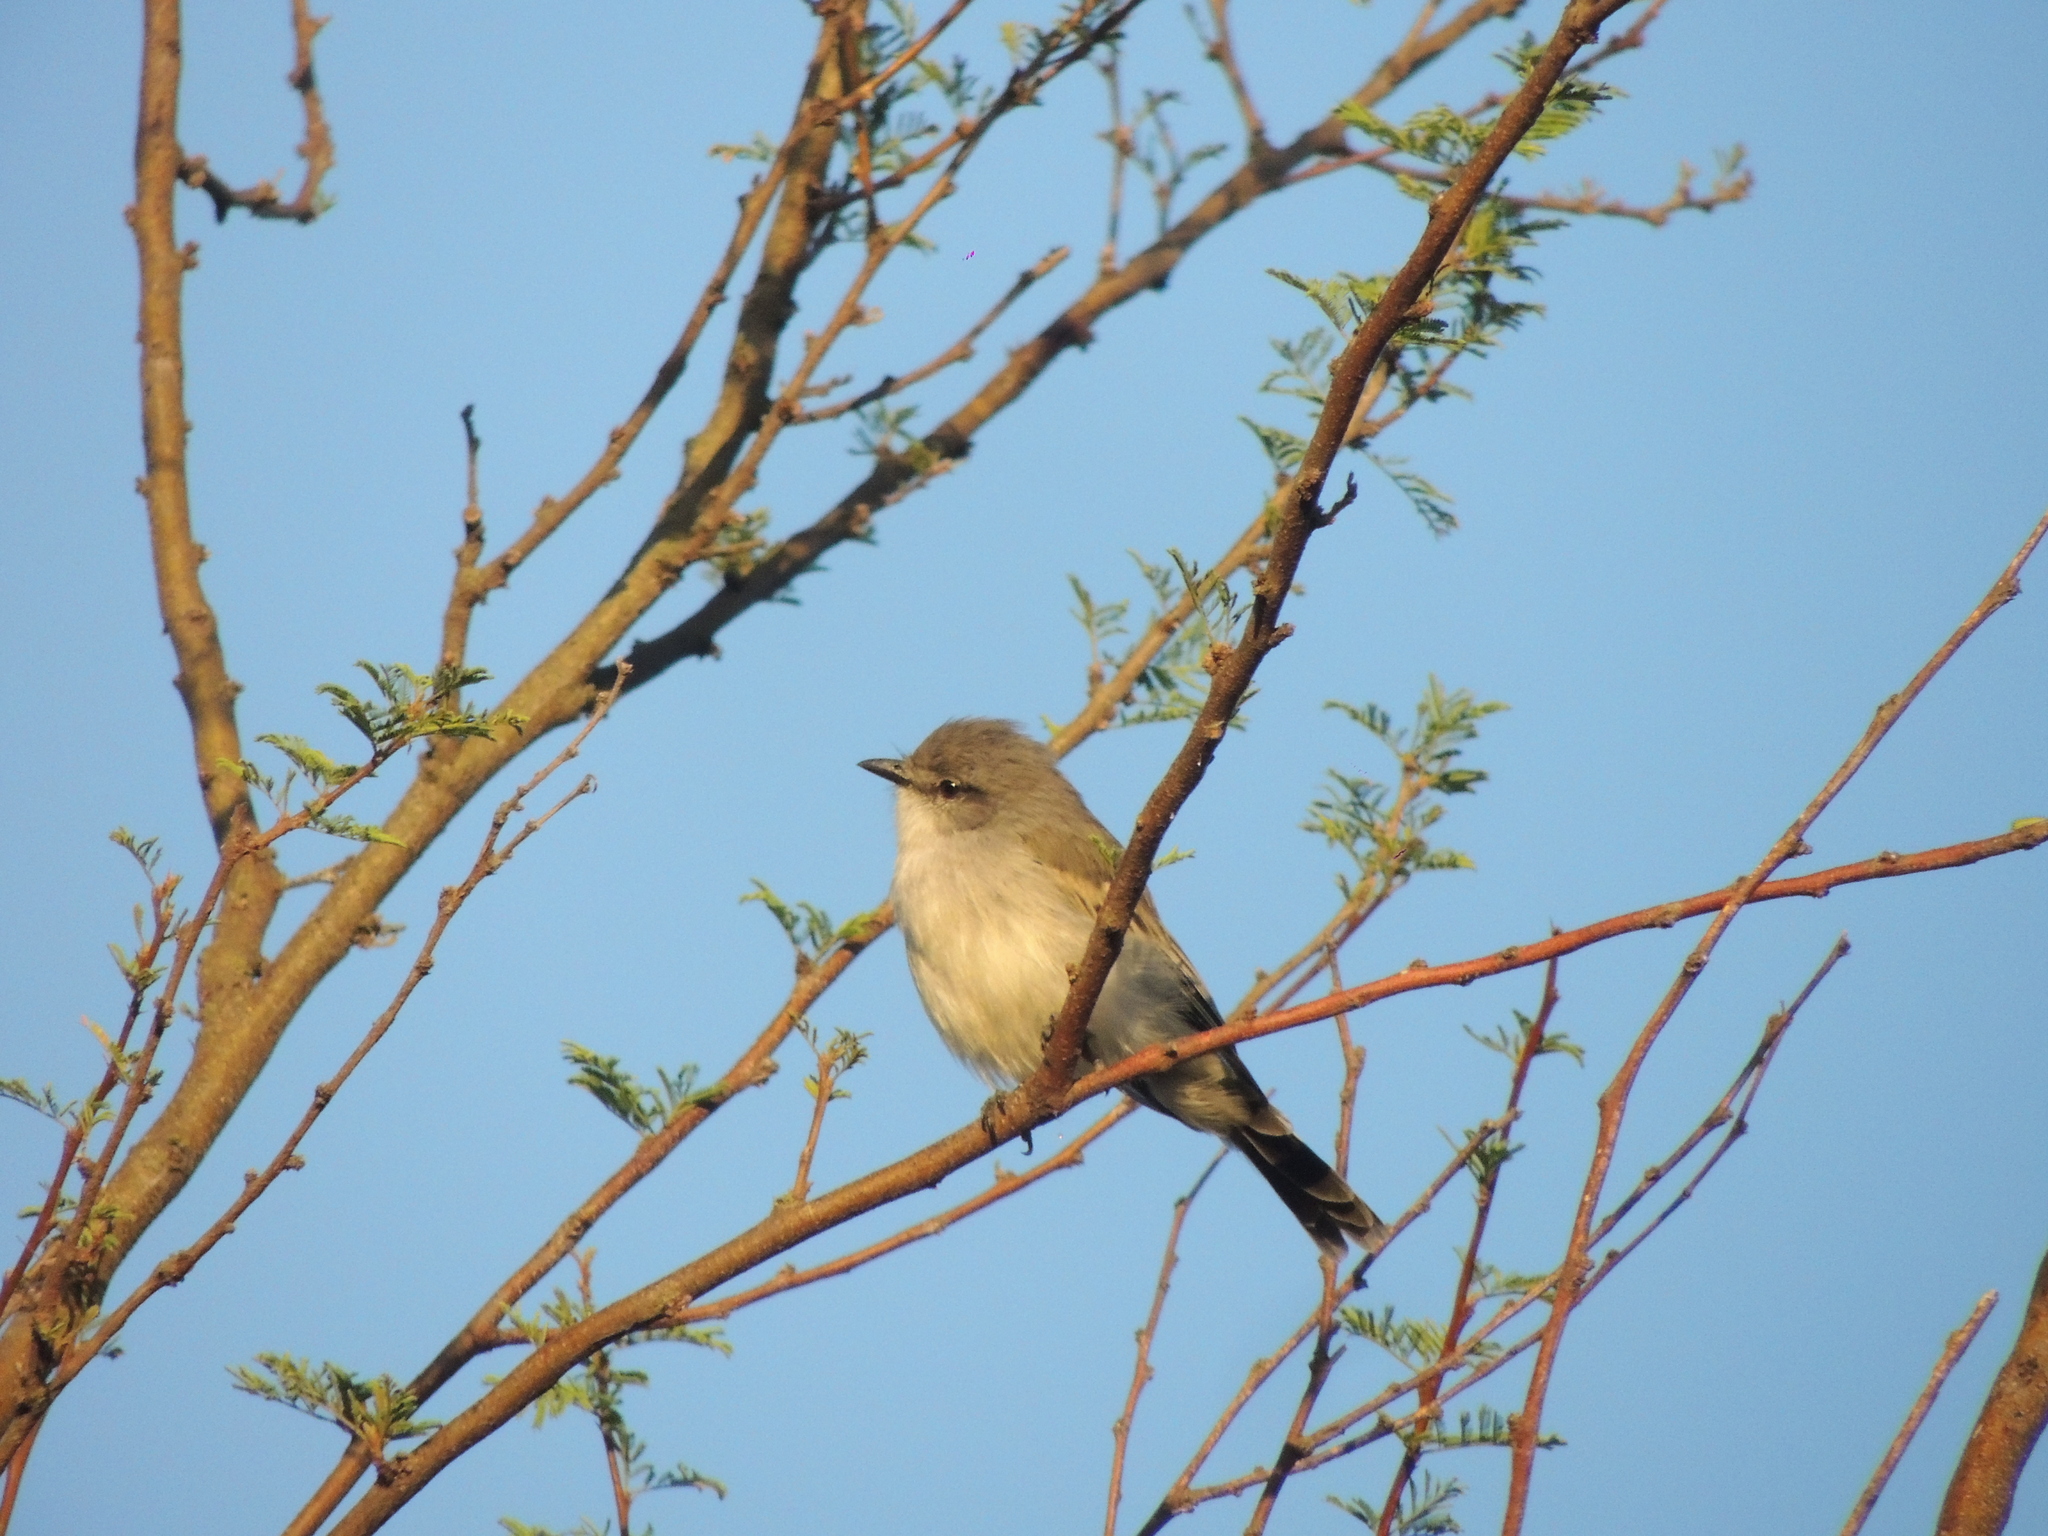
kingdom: Animalia
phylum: Chordata
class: Aves
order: Passeriformes
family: Tyrannidae
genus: Suiriri
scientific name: Suiriri suiriri
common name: Suiriri flycatcher
